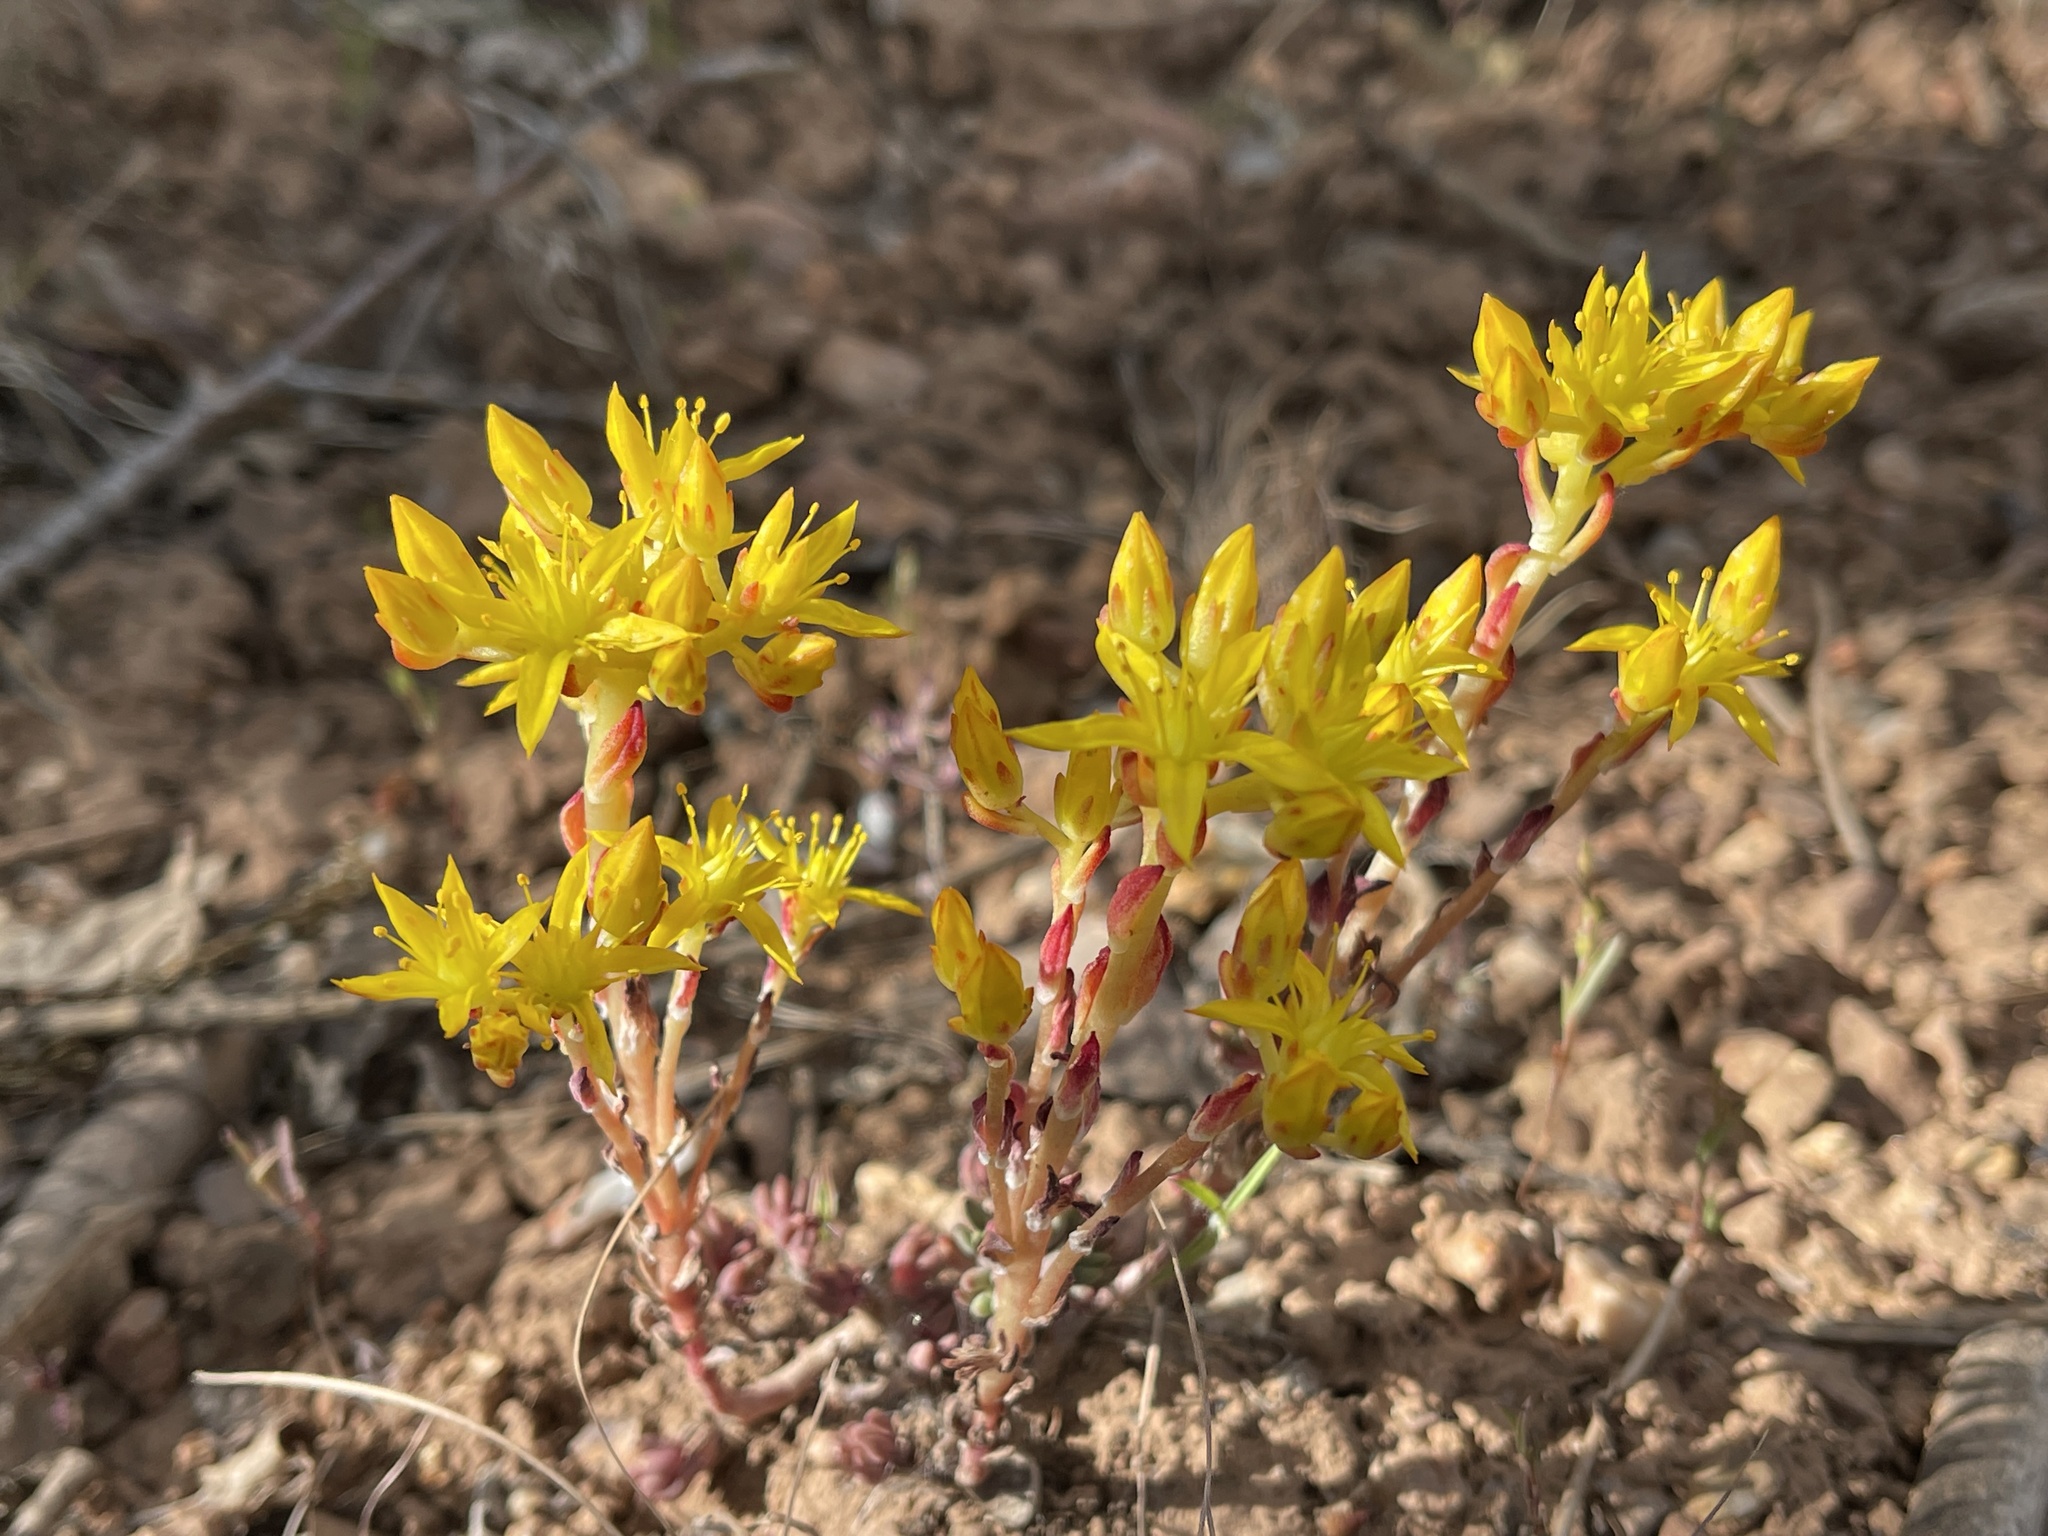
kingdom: Plantae
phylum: Tracheophyta
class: Magnoliopsida
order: Saxifragales
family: Crassulaceae
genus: Sedum
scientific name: Sedum lanceolatum
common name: Common stonecrop
